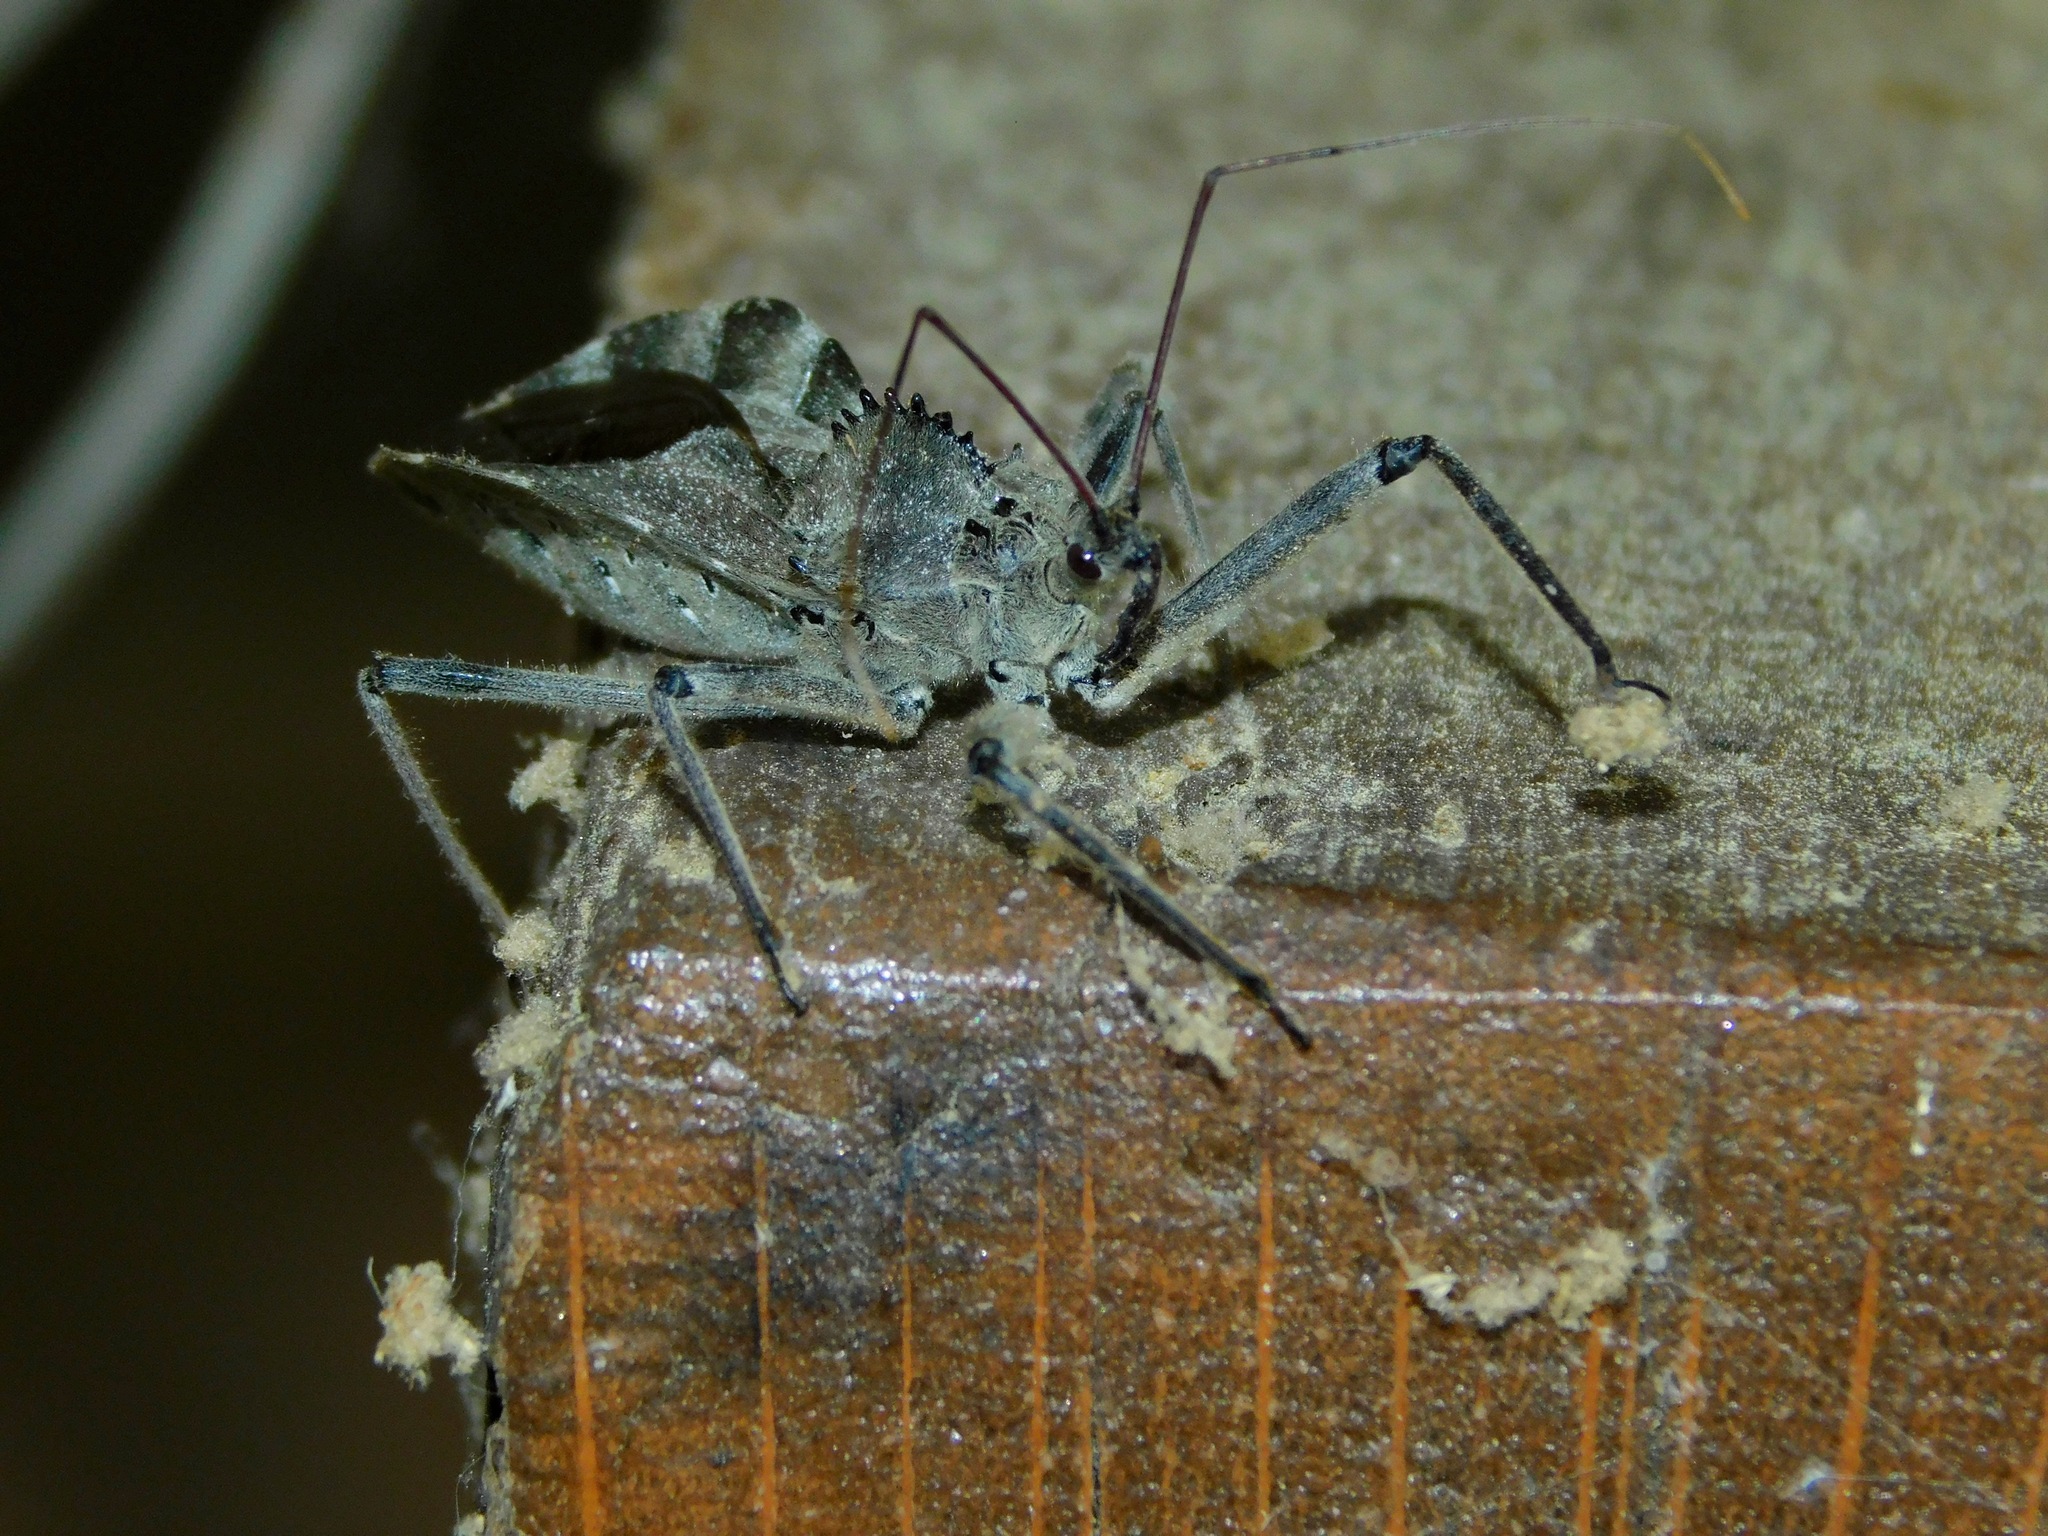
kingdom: Animalia
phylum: Arthropoda
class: Insecta
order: Hemiptera
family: Reduviidae
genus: Arilus
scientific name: Arilus cristatus
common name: North american wheel bug
